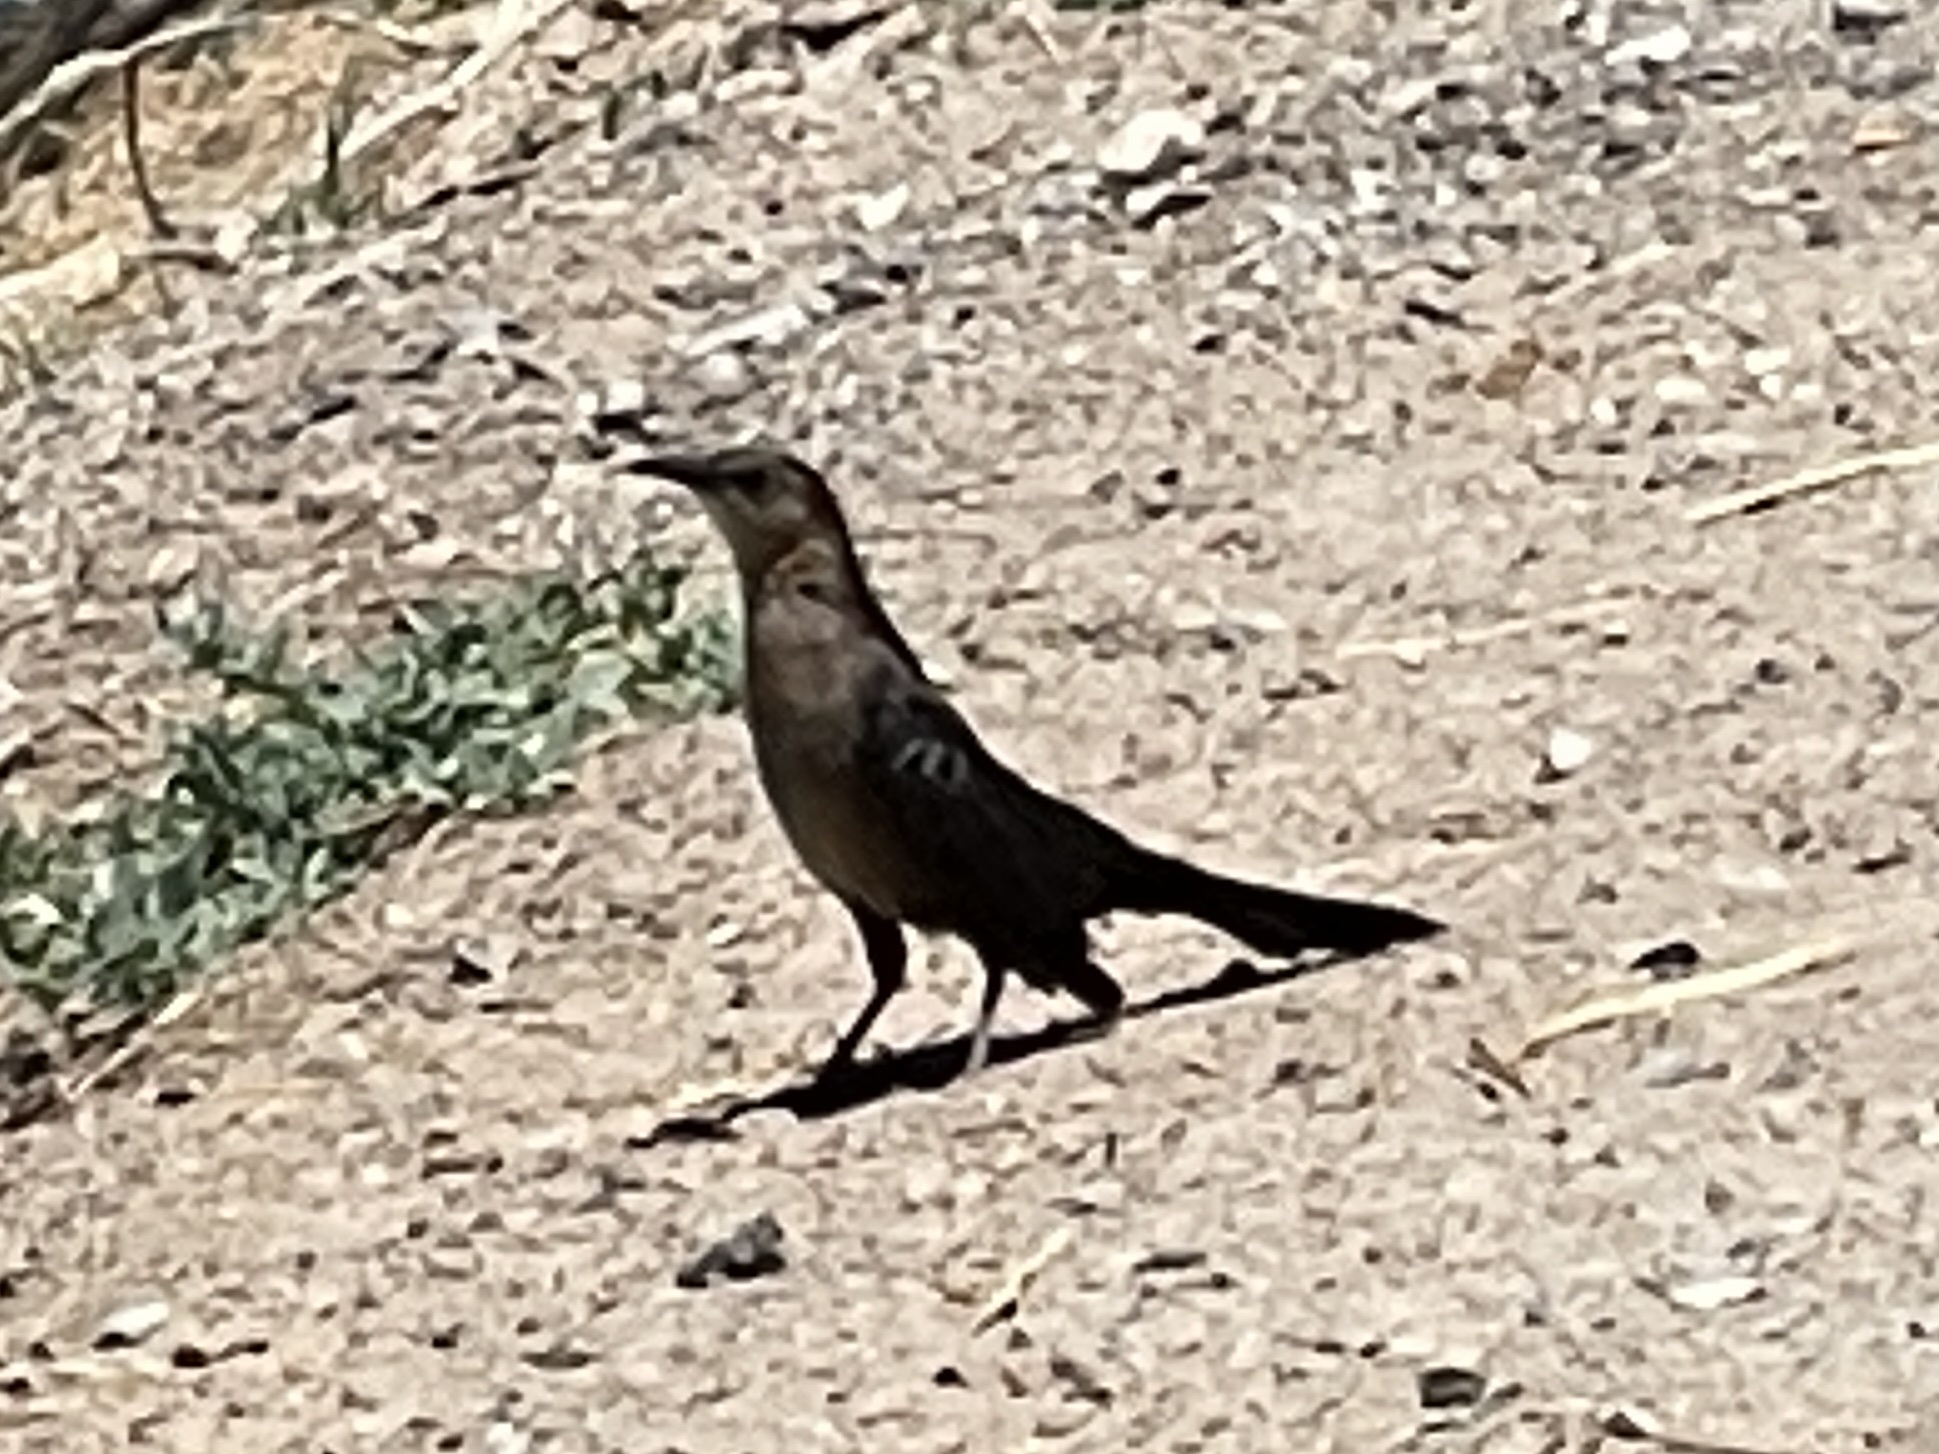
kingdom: Animalia
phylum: Chordata
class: Aves
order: Passeriformes
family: Icteridae
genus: Quiscalus
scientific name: Quiscalus mexicanus
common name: Great-tailed grackle
